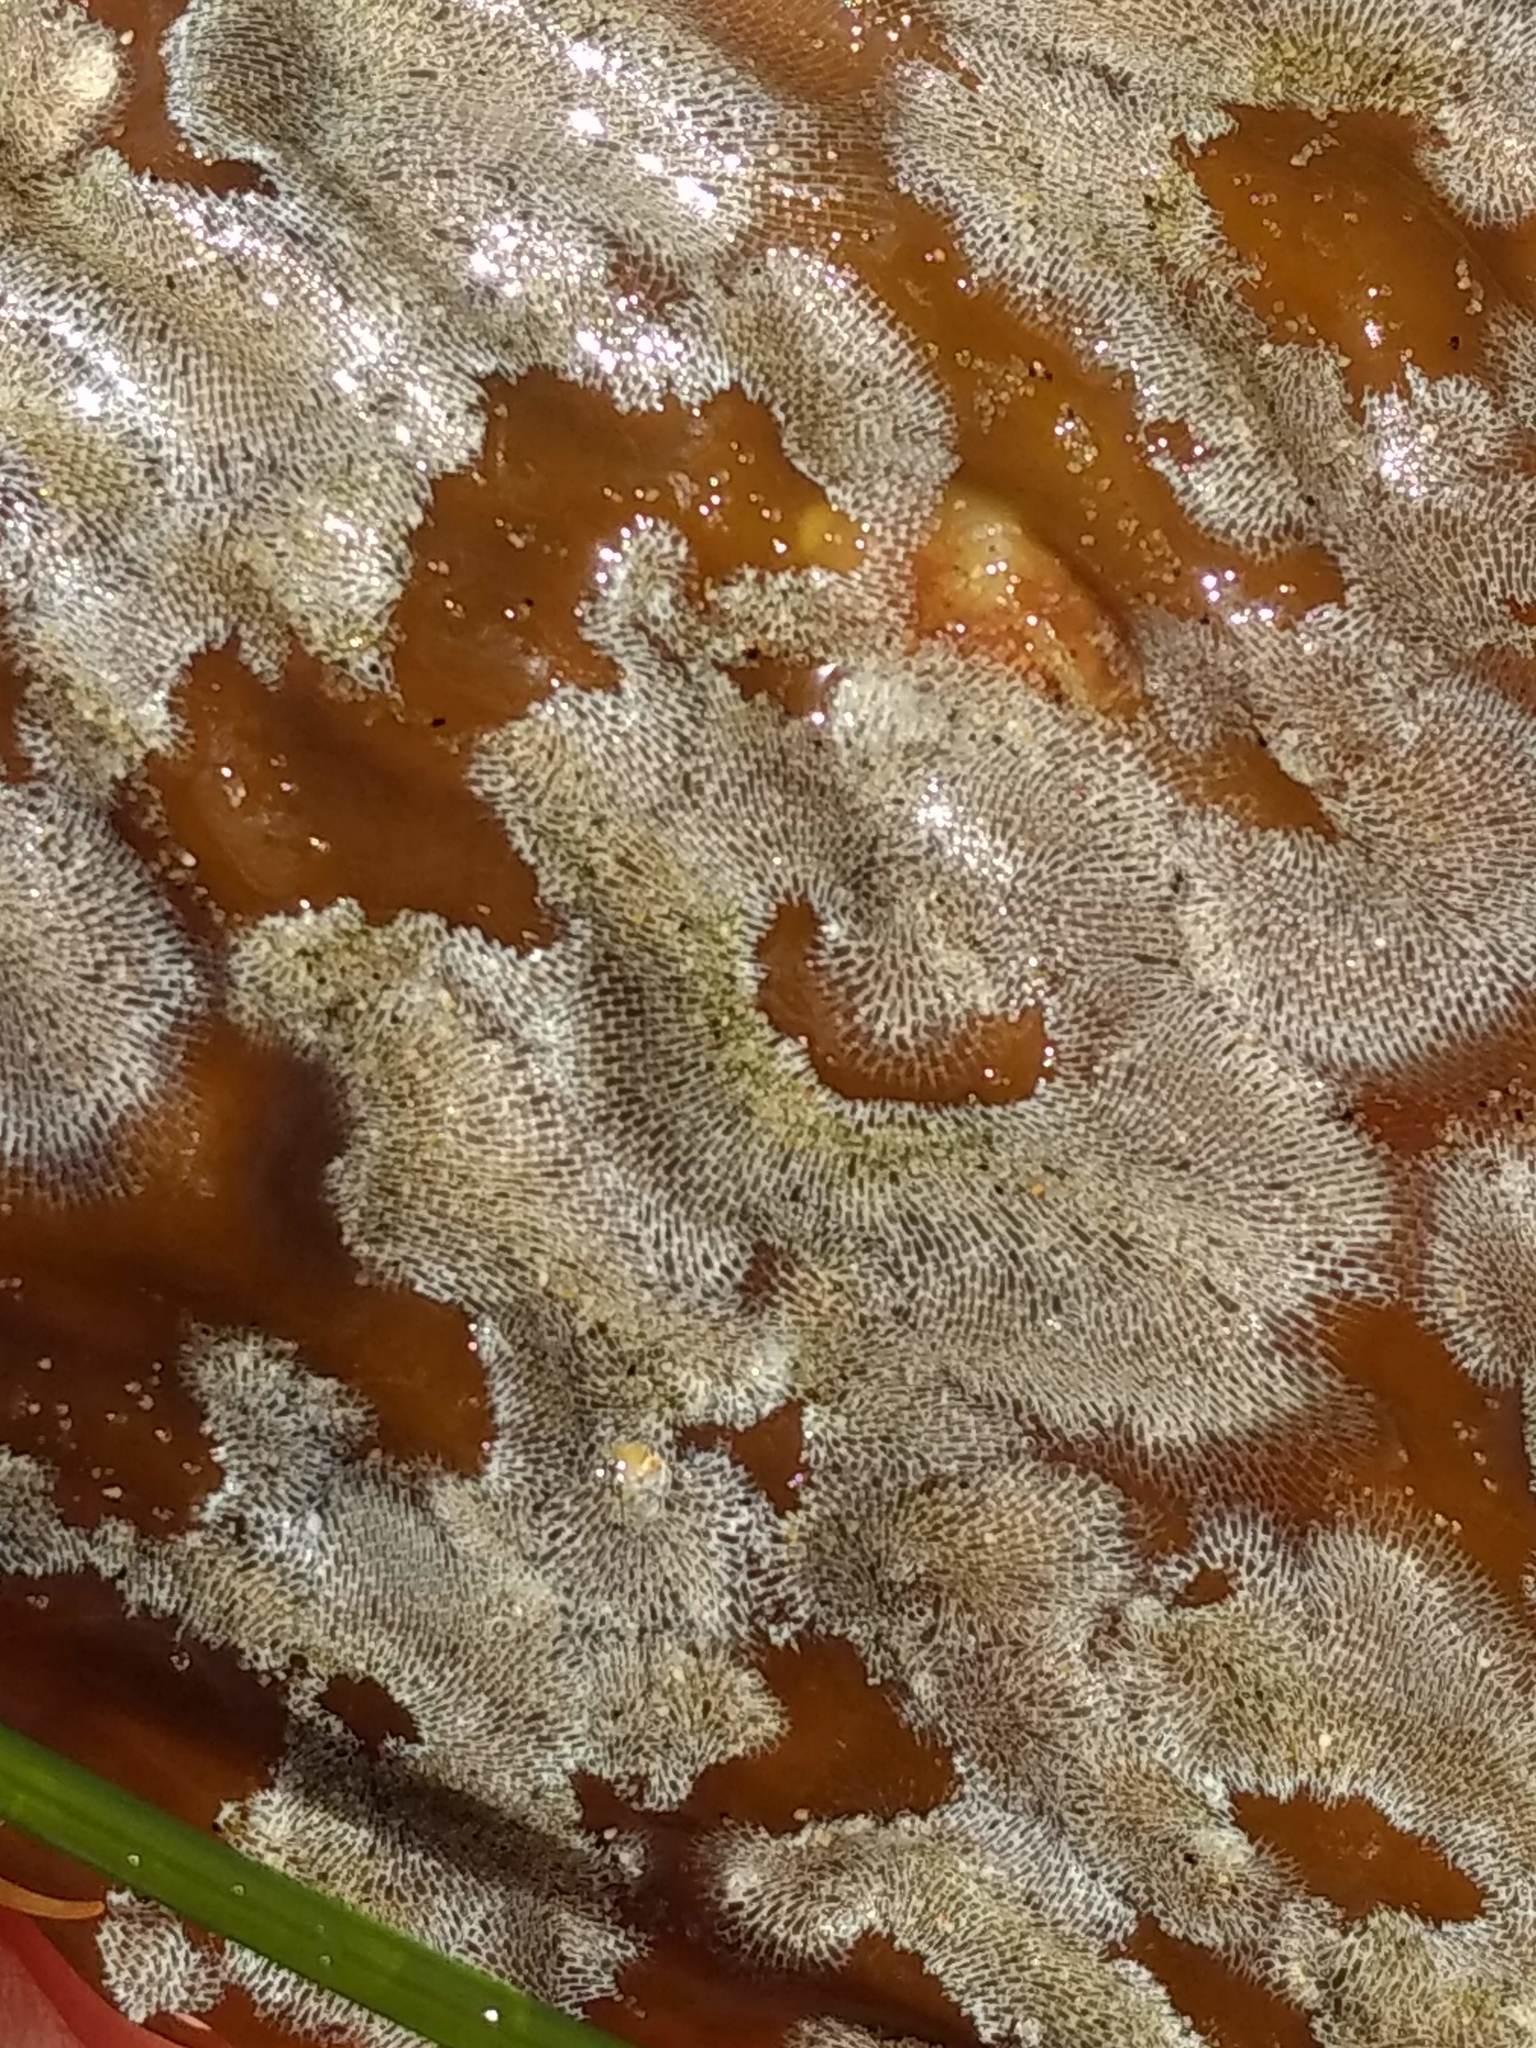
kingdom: Animalia
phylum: Bryozoa
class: Gymnolaemata
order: Cheilostomatida
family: Membraniporidae
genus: Membranipora
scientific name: Membranipora membranacea
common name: Sea mat
